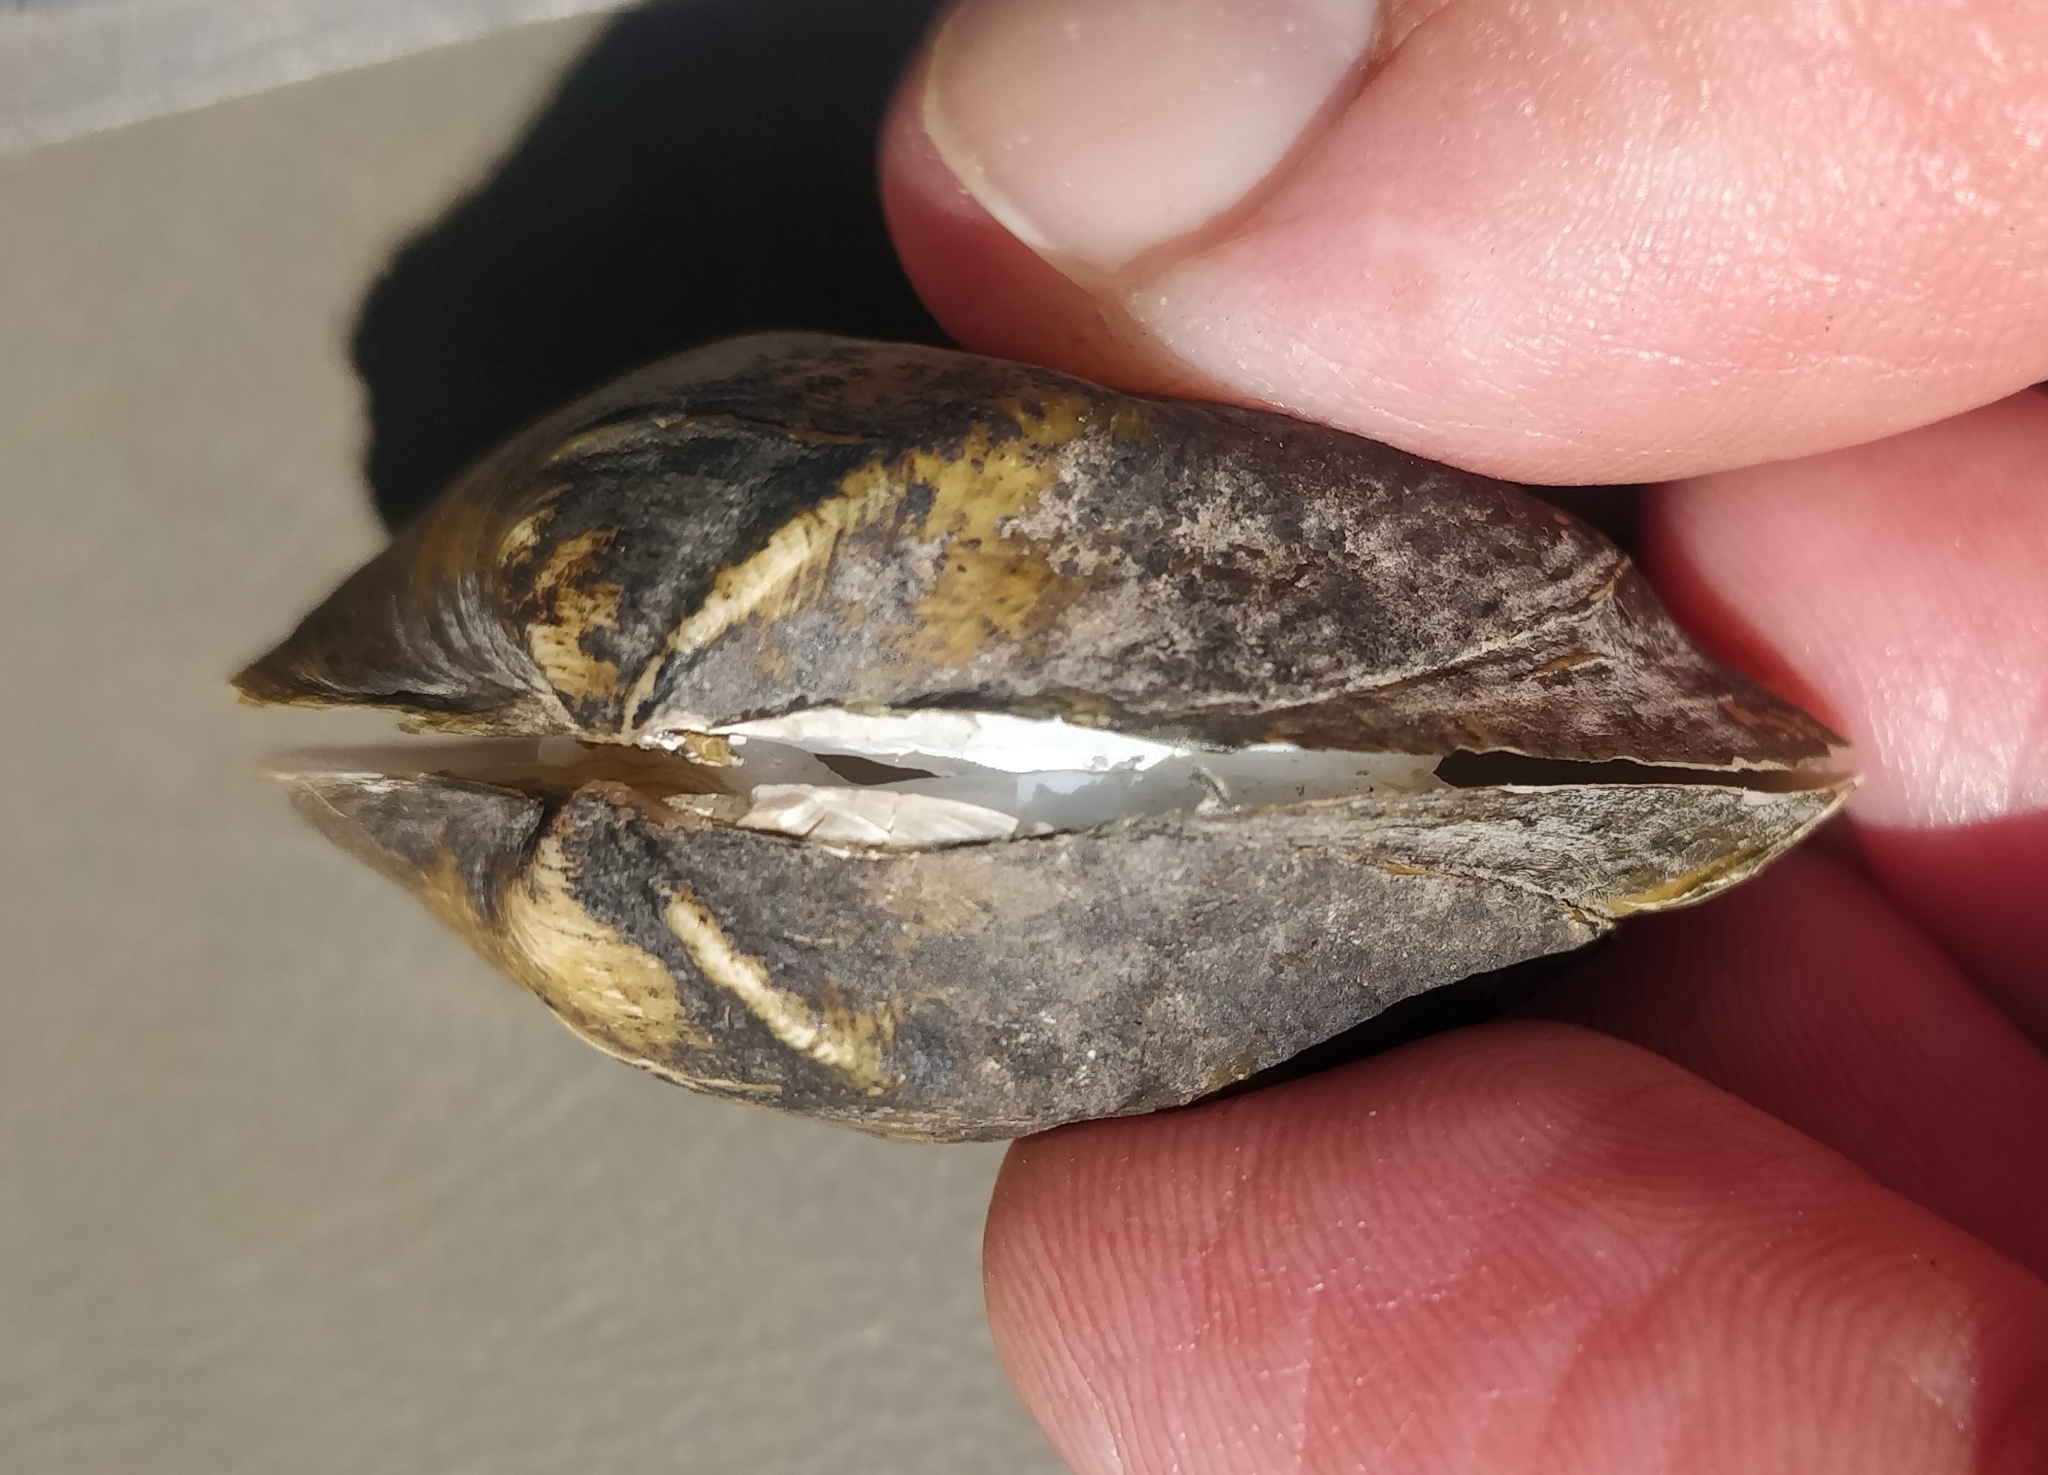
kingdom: Animalia
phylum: Mollusca
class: Bivalvia
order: Unionida
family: Unionidae
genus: Truncilla
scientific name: Truncilla truncata
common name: Deertoe
